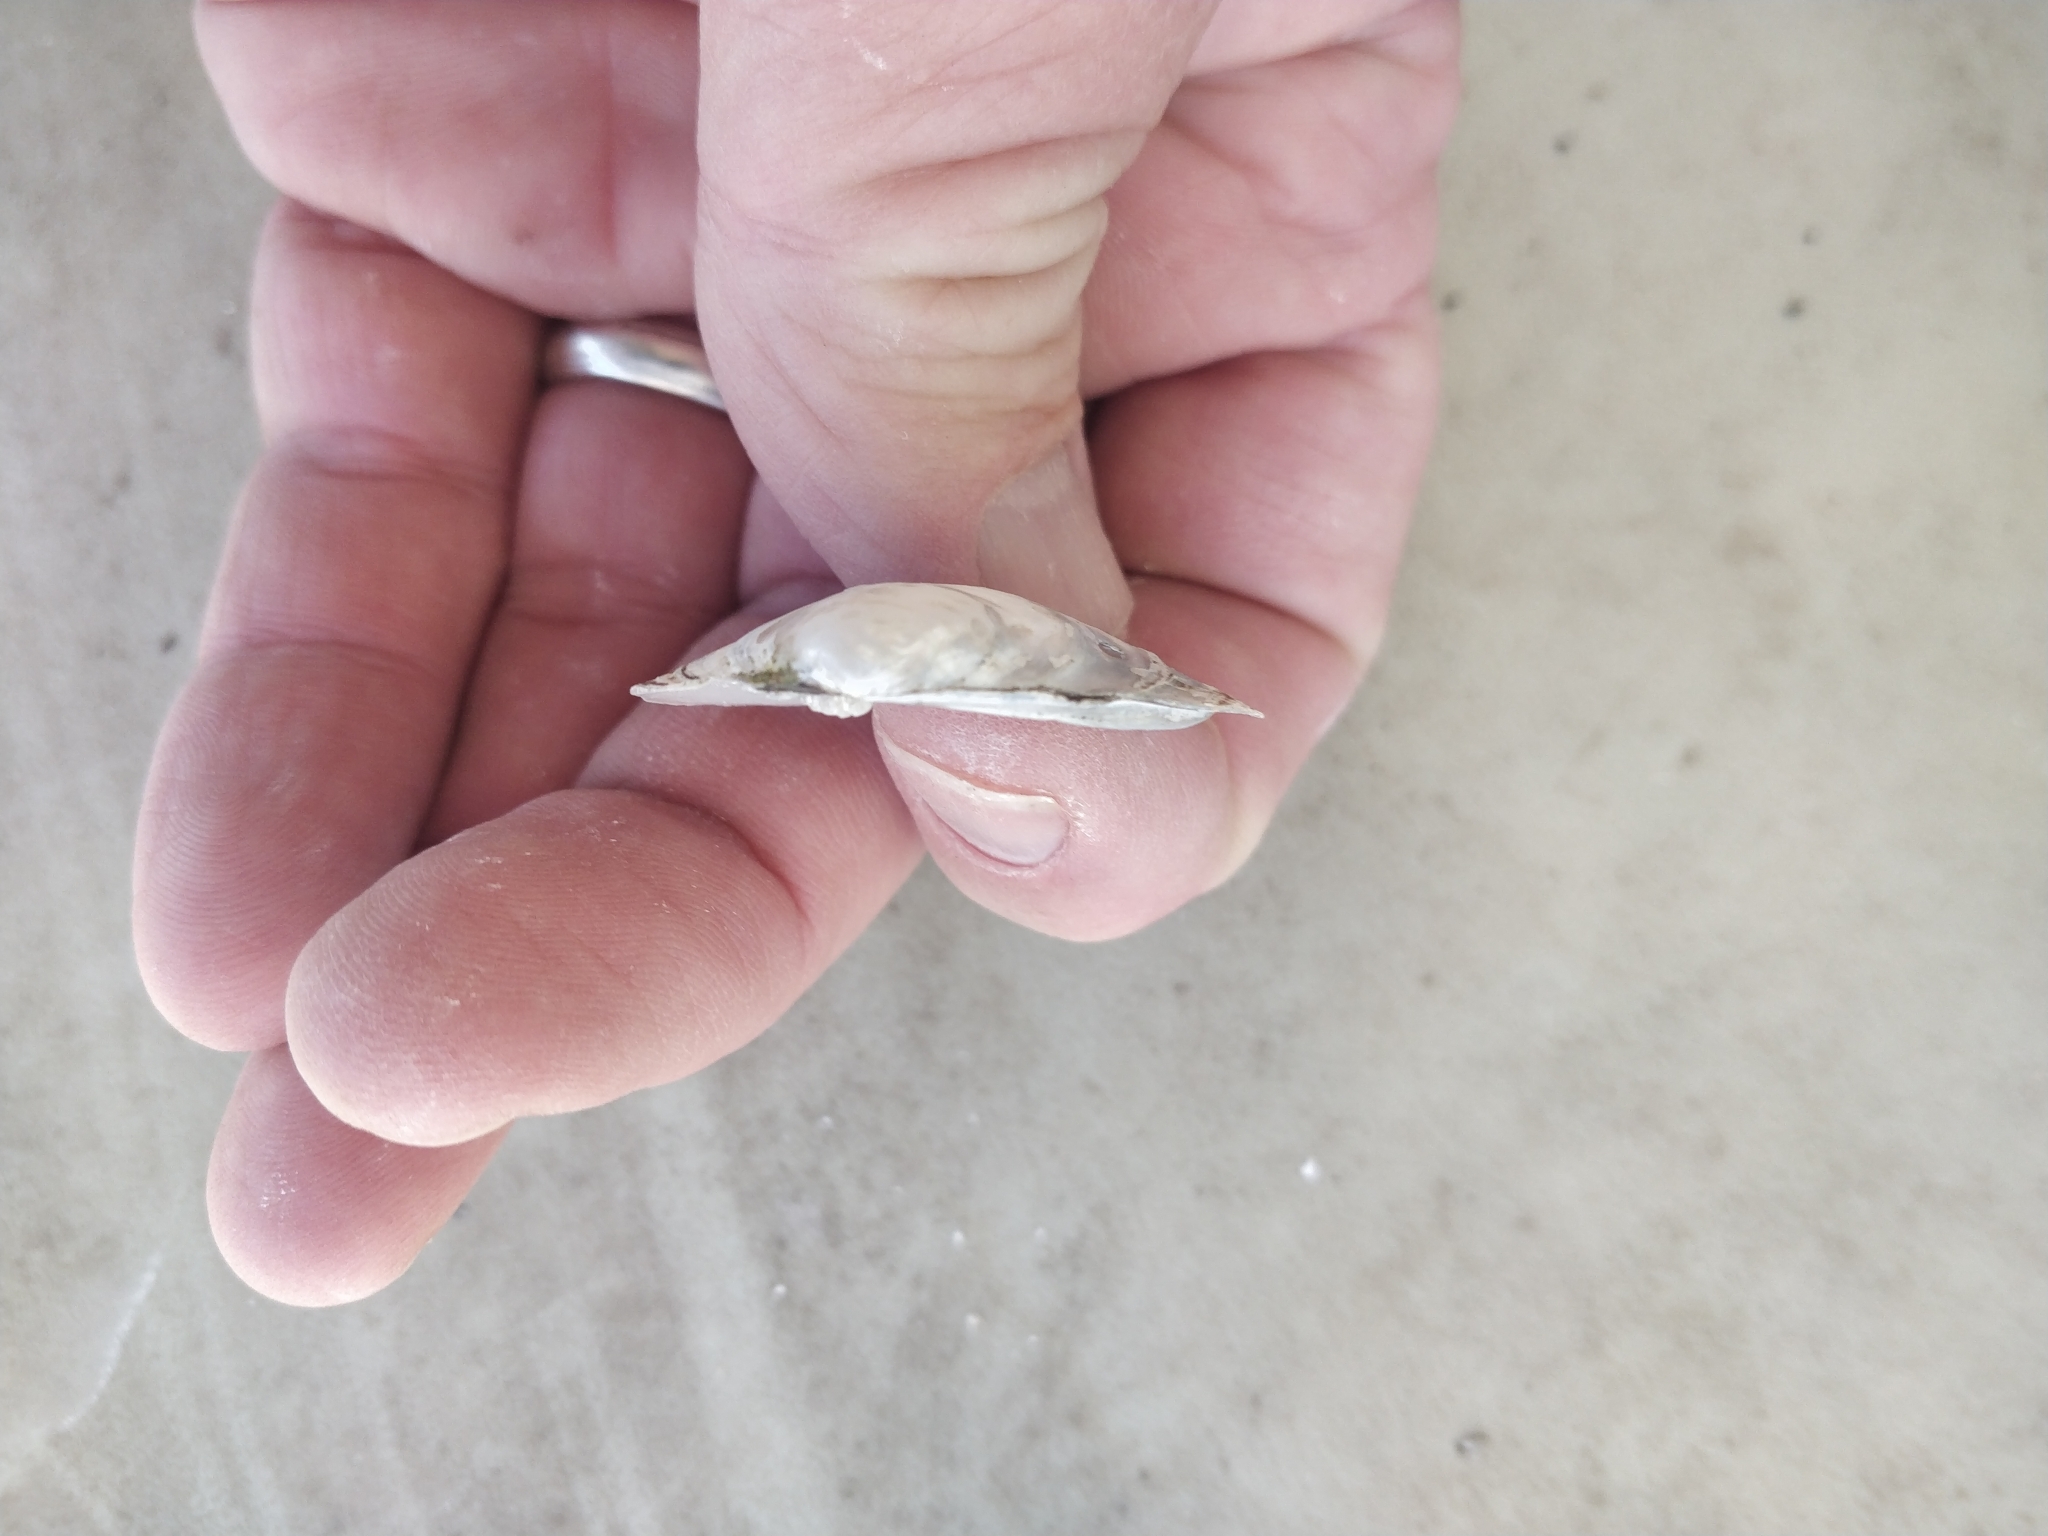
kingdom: Animalia
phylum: Mollusca
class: Bivalvia
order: Unionida
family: Unionidae
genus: Amblema
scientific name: Amblema plicata
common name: Threeridge
